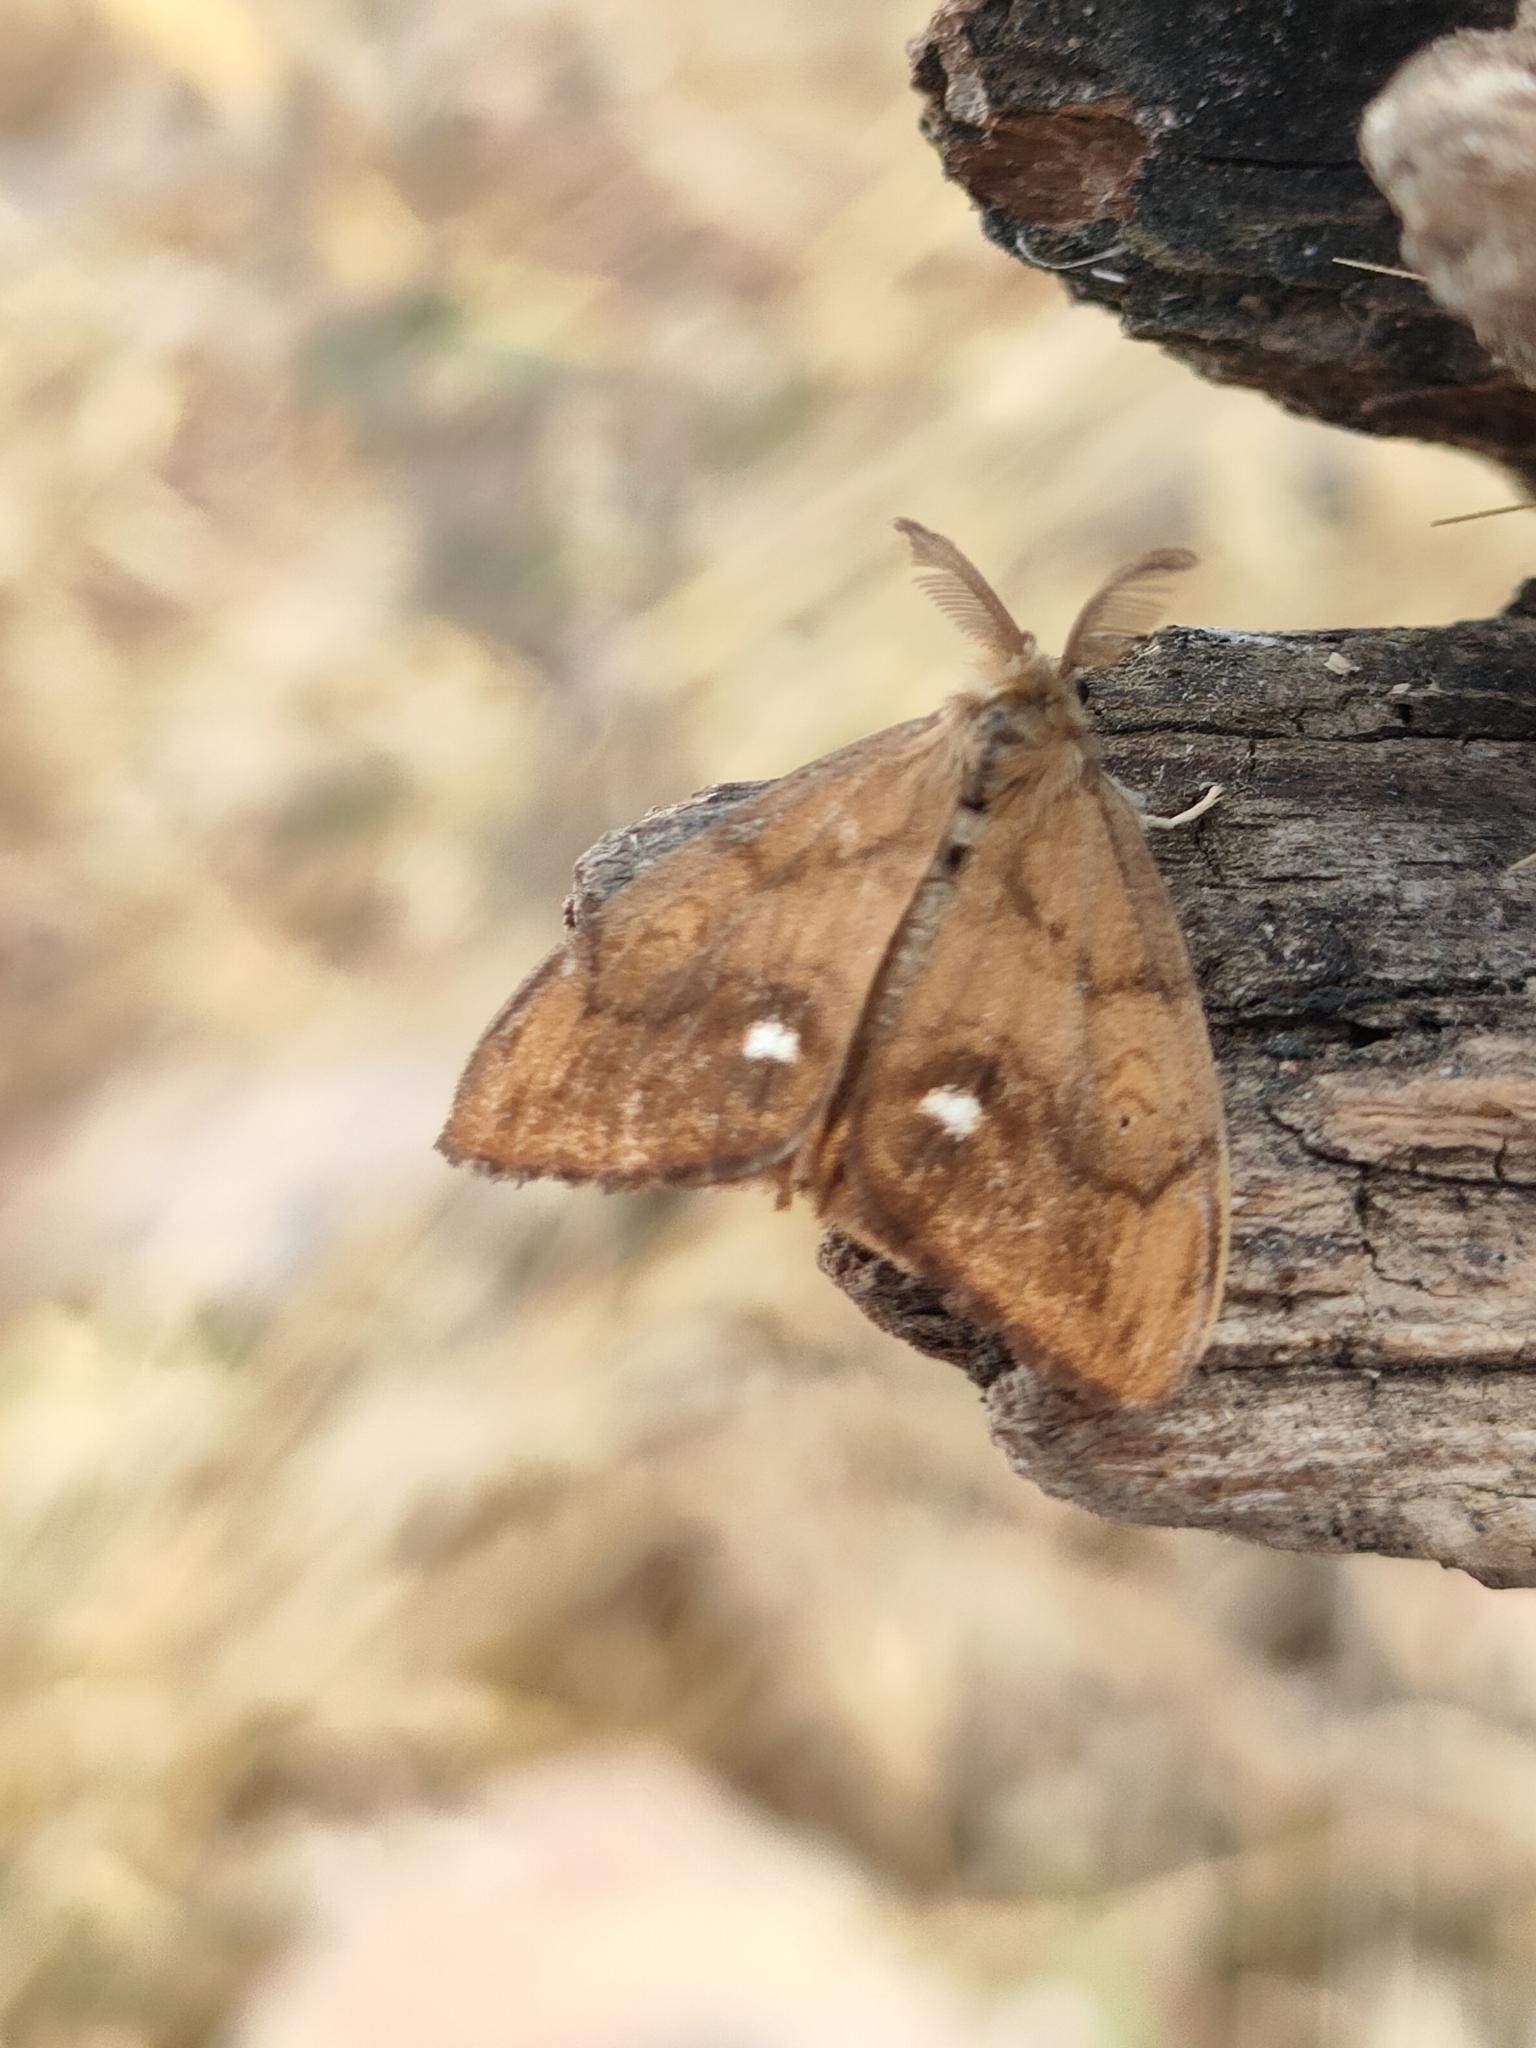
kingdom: Animalia
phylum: Arthropoda
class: Insecta
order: Lepidoptera
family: Erebidae
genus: Orgyia
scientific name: Orgyia antiqua
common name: Vapourer
